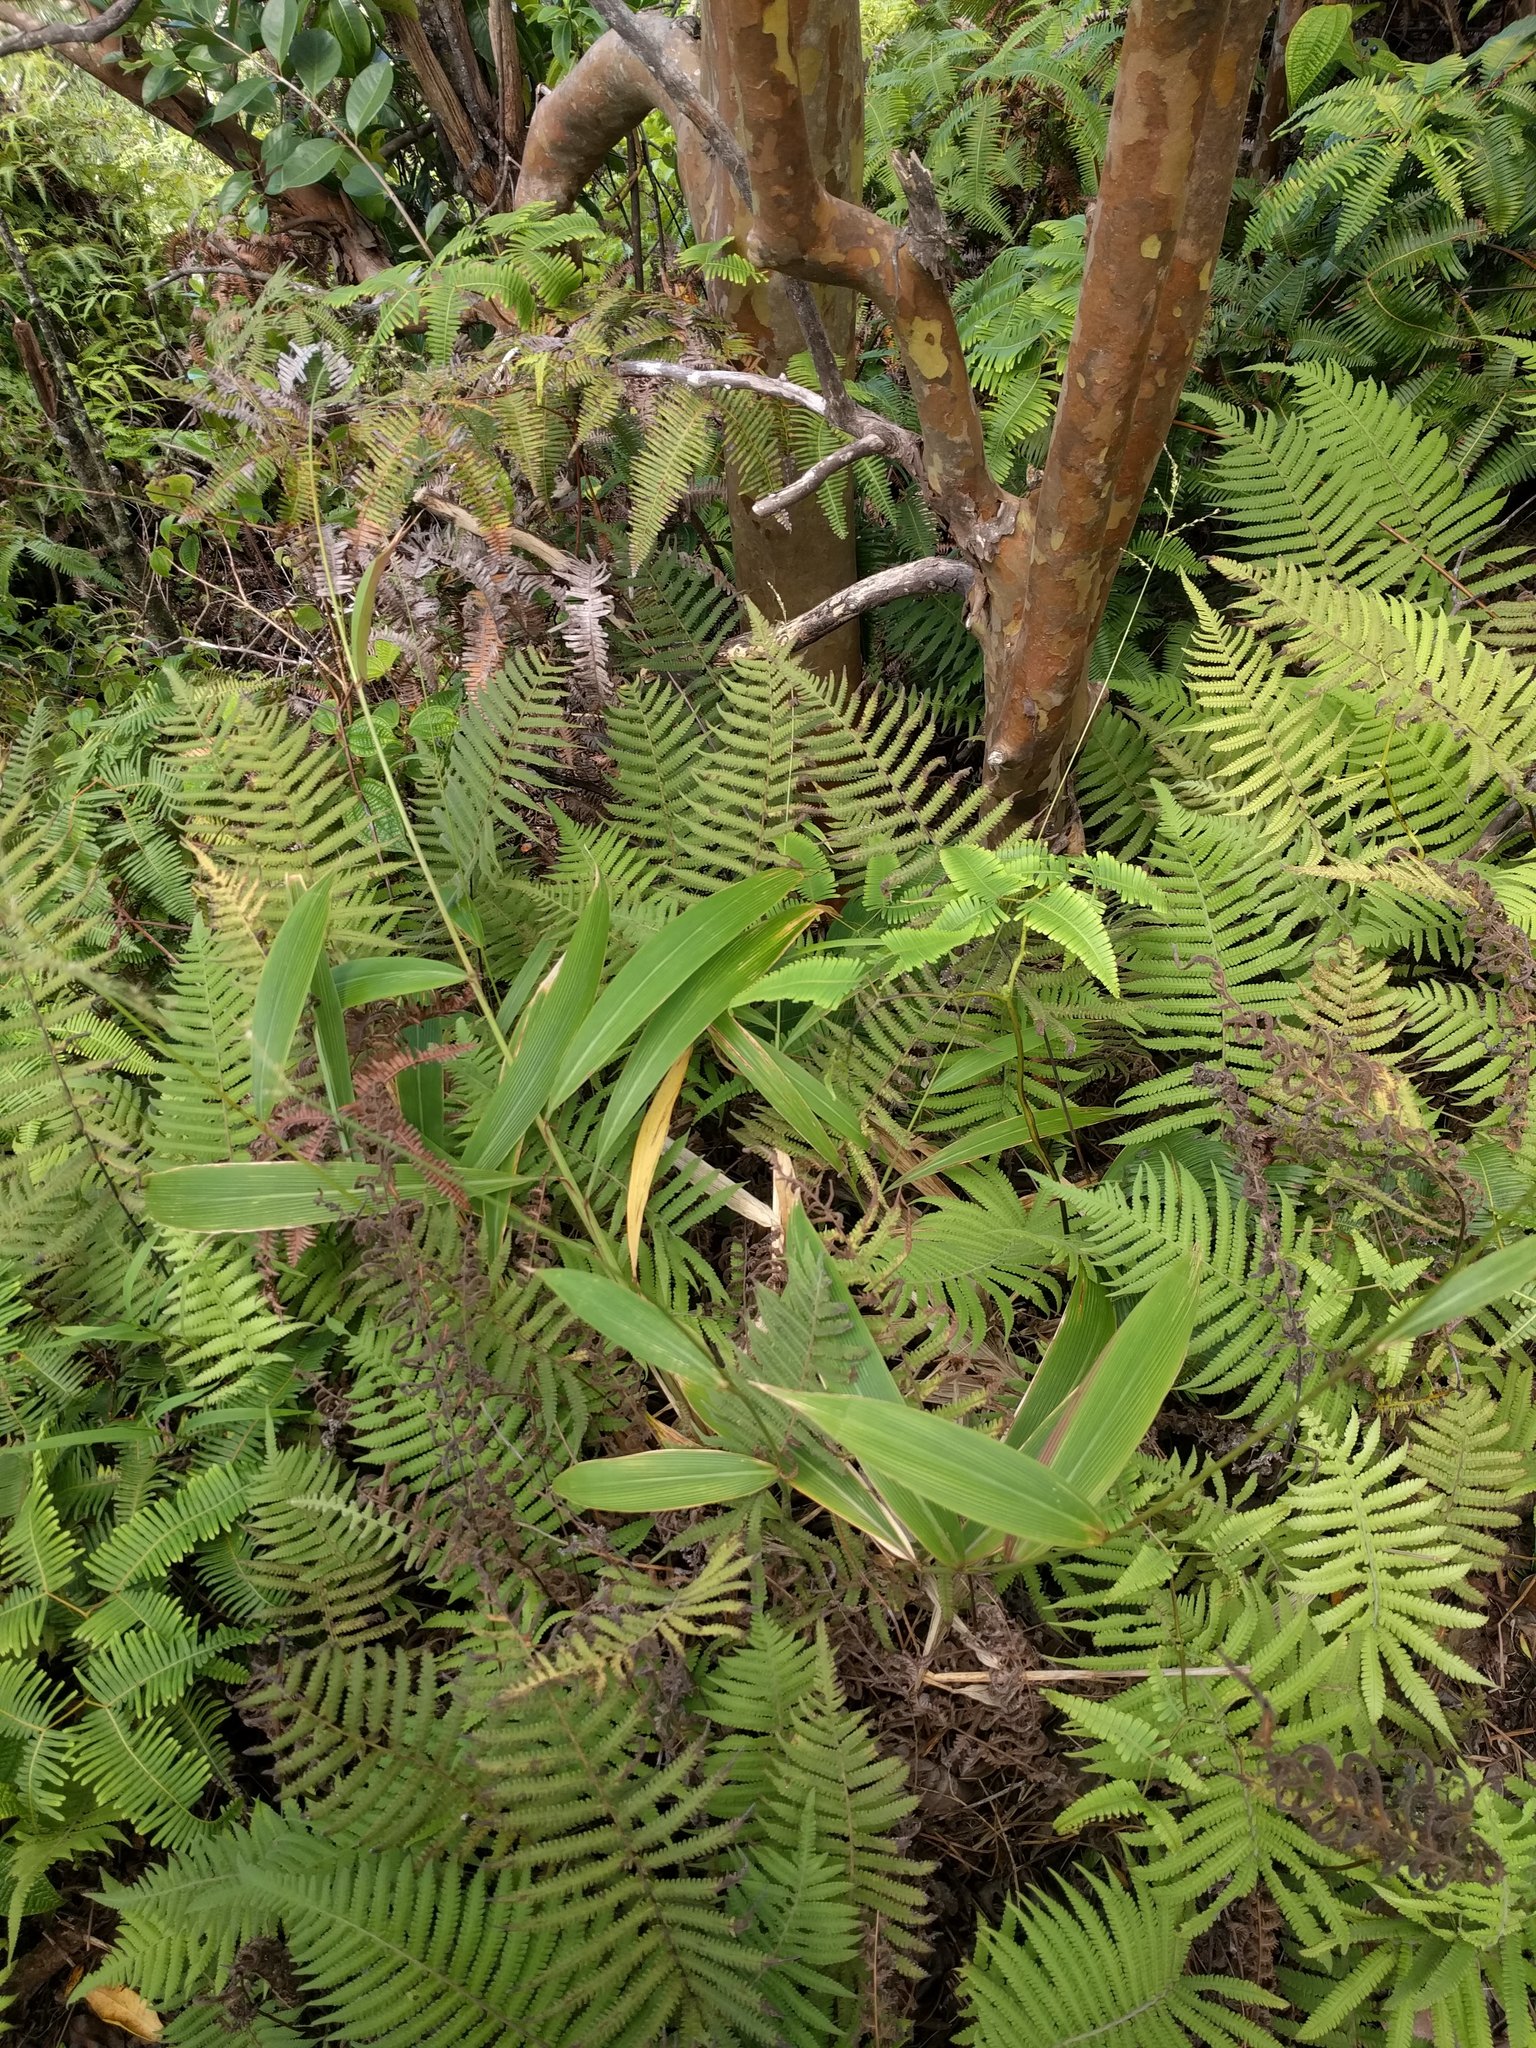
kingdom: Plantae
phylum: Tracheophyta
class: Liliopsida
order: Poales
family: Poaceae
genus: Setaria
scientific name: Setaria palmifolia
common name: Broadleaved bristlegrass
